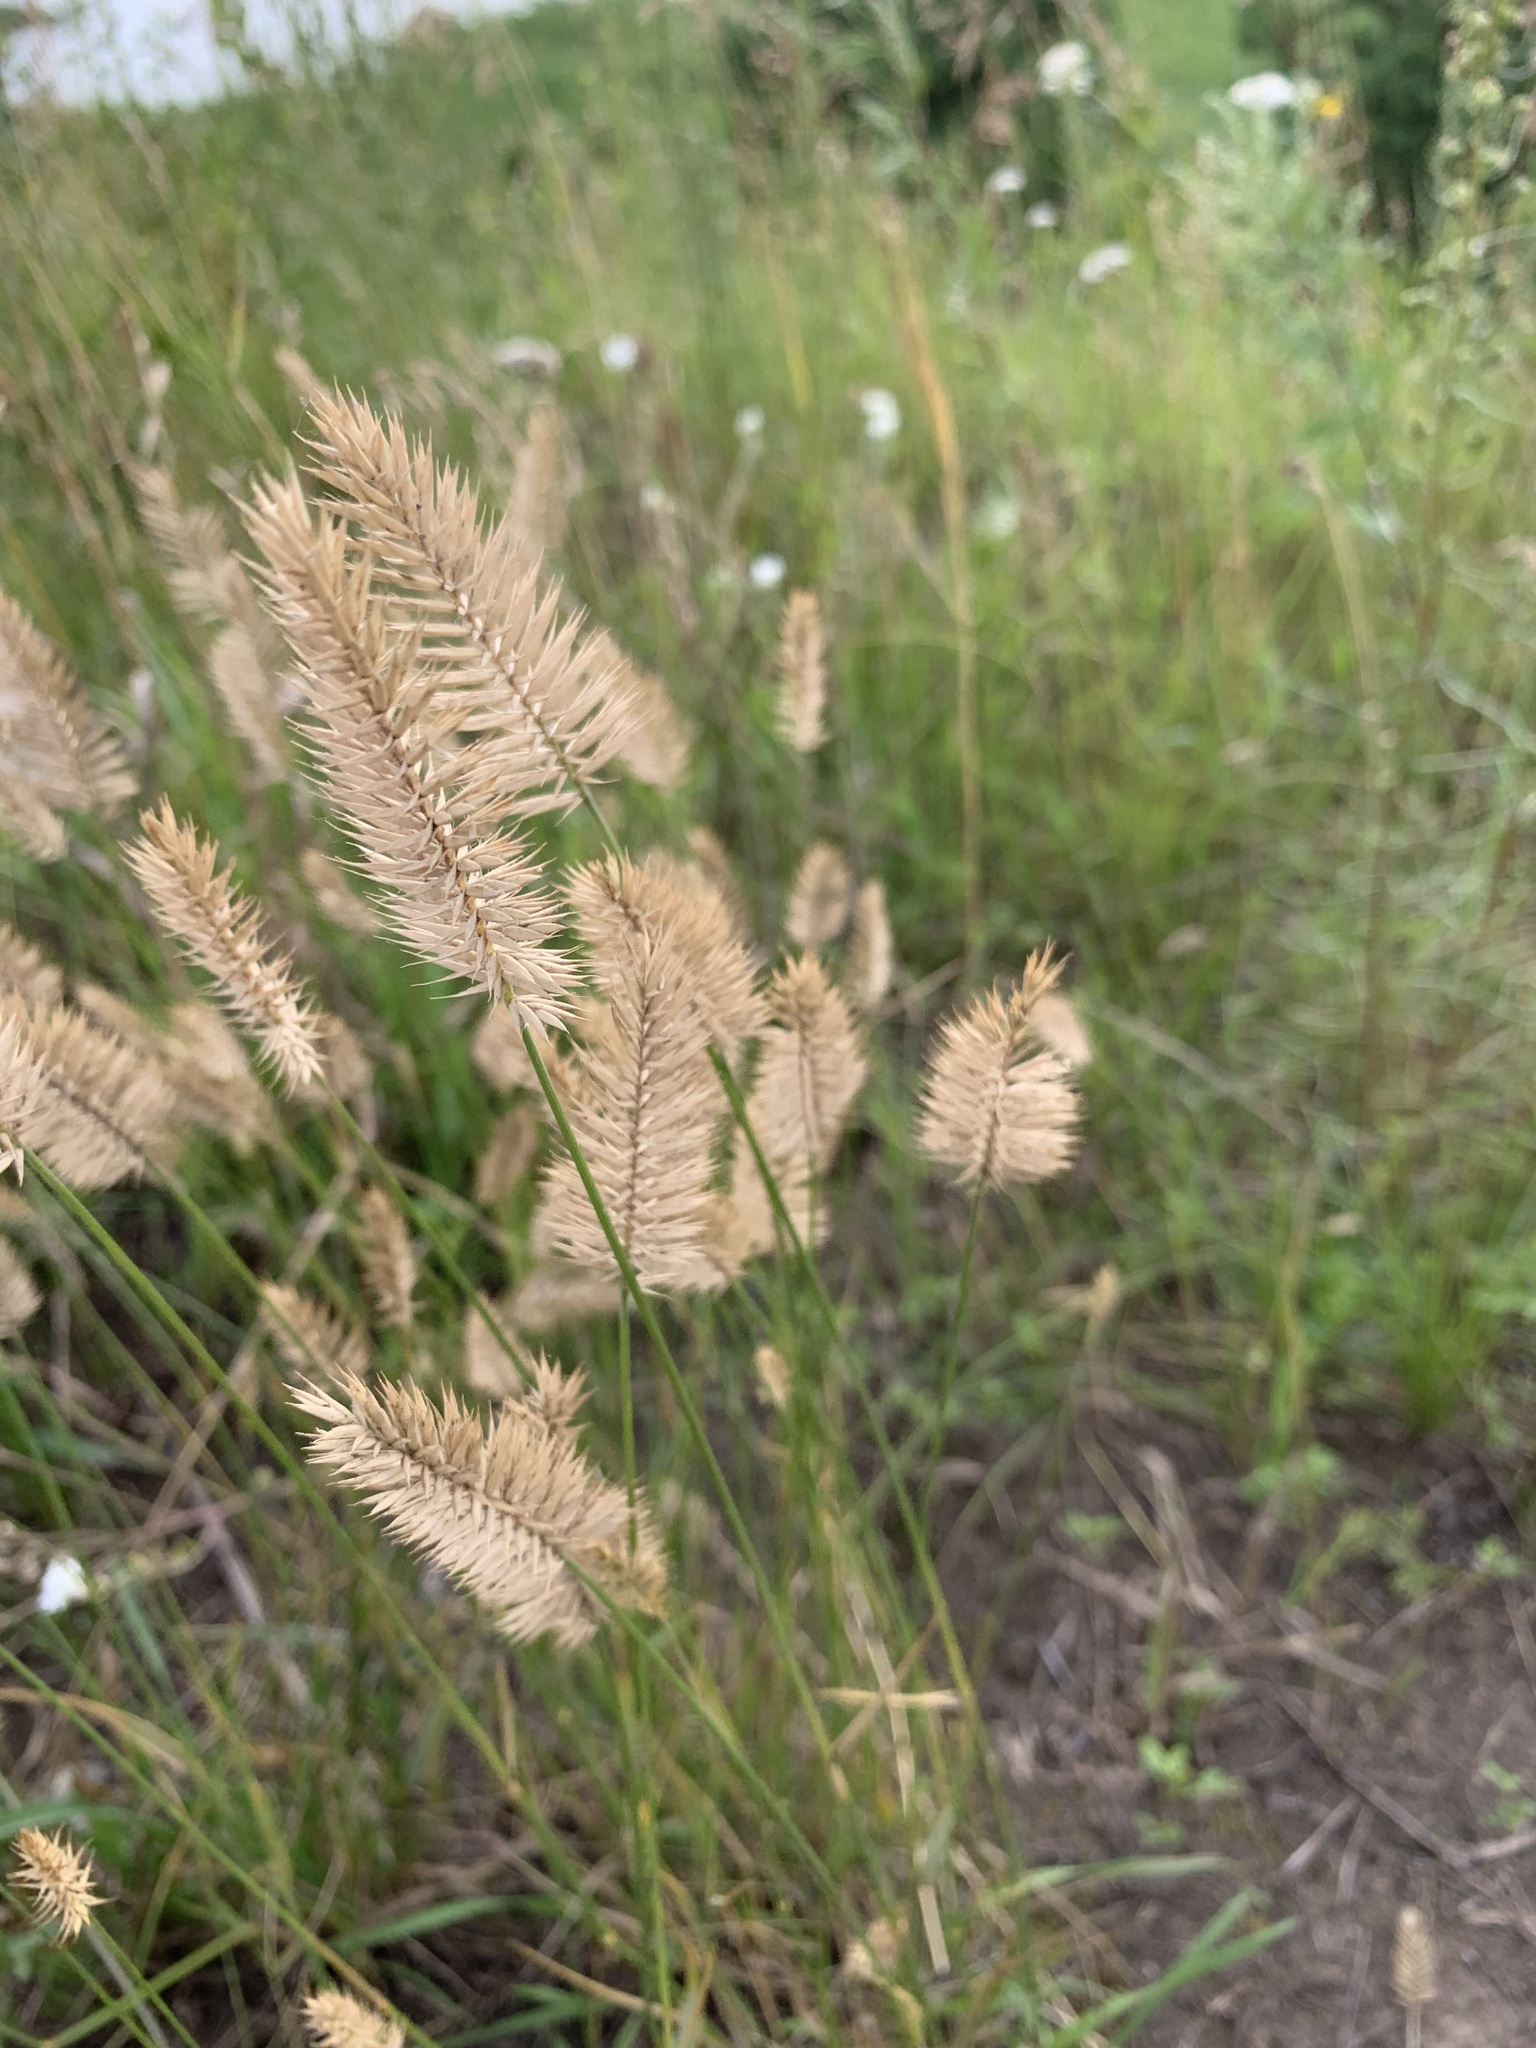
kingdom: Plantae
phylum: Tracheophyta
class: Liliopsida
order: Poales
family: Poaceae
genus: Agropyron
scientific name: Agropyron cristatum
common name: Crested wheatgrass
